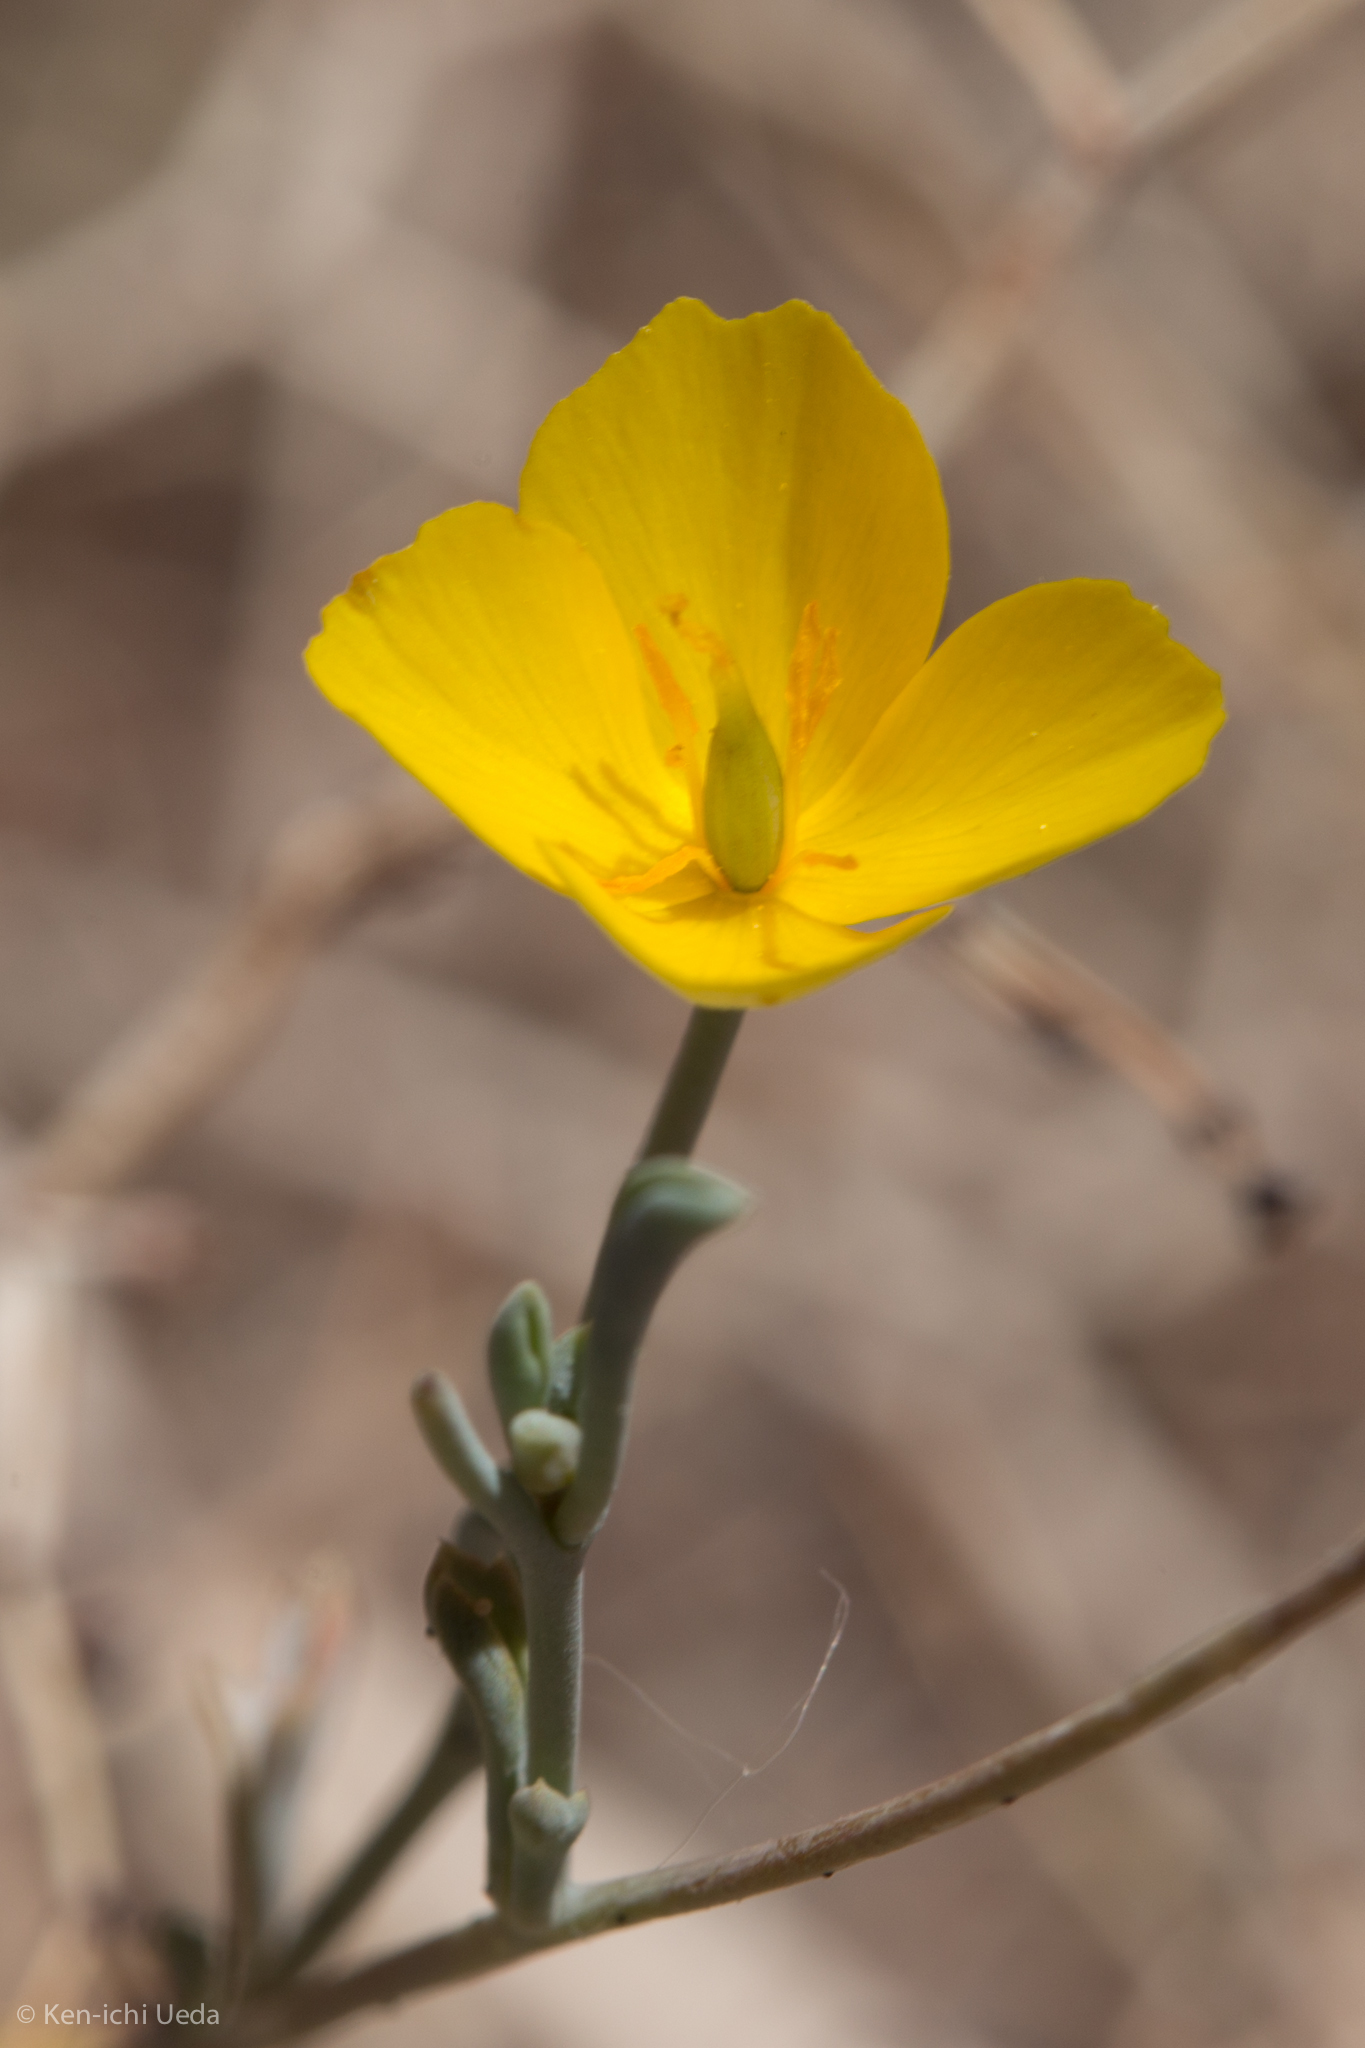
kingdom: Plantae
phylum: Tracheophyta
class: Magnoliopsida
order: Ranunculales
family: Papaveraceae
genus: Eschscholzia
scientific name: Eschscholzia minutiflora
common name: Small-flower california-poppy
